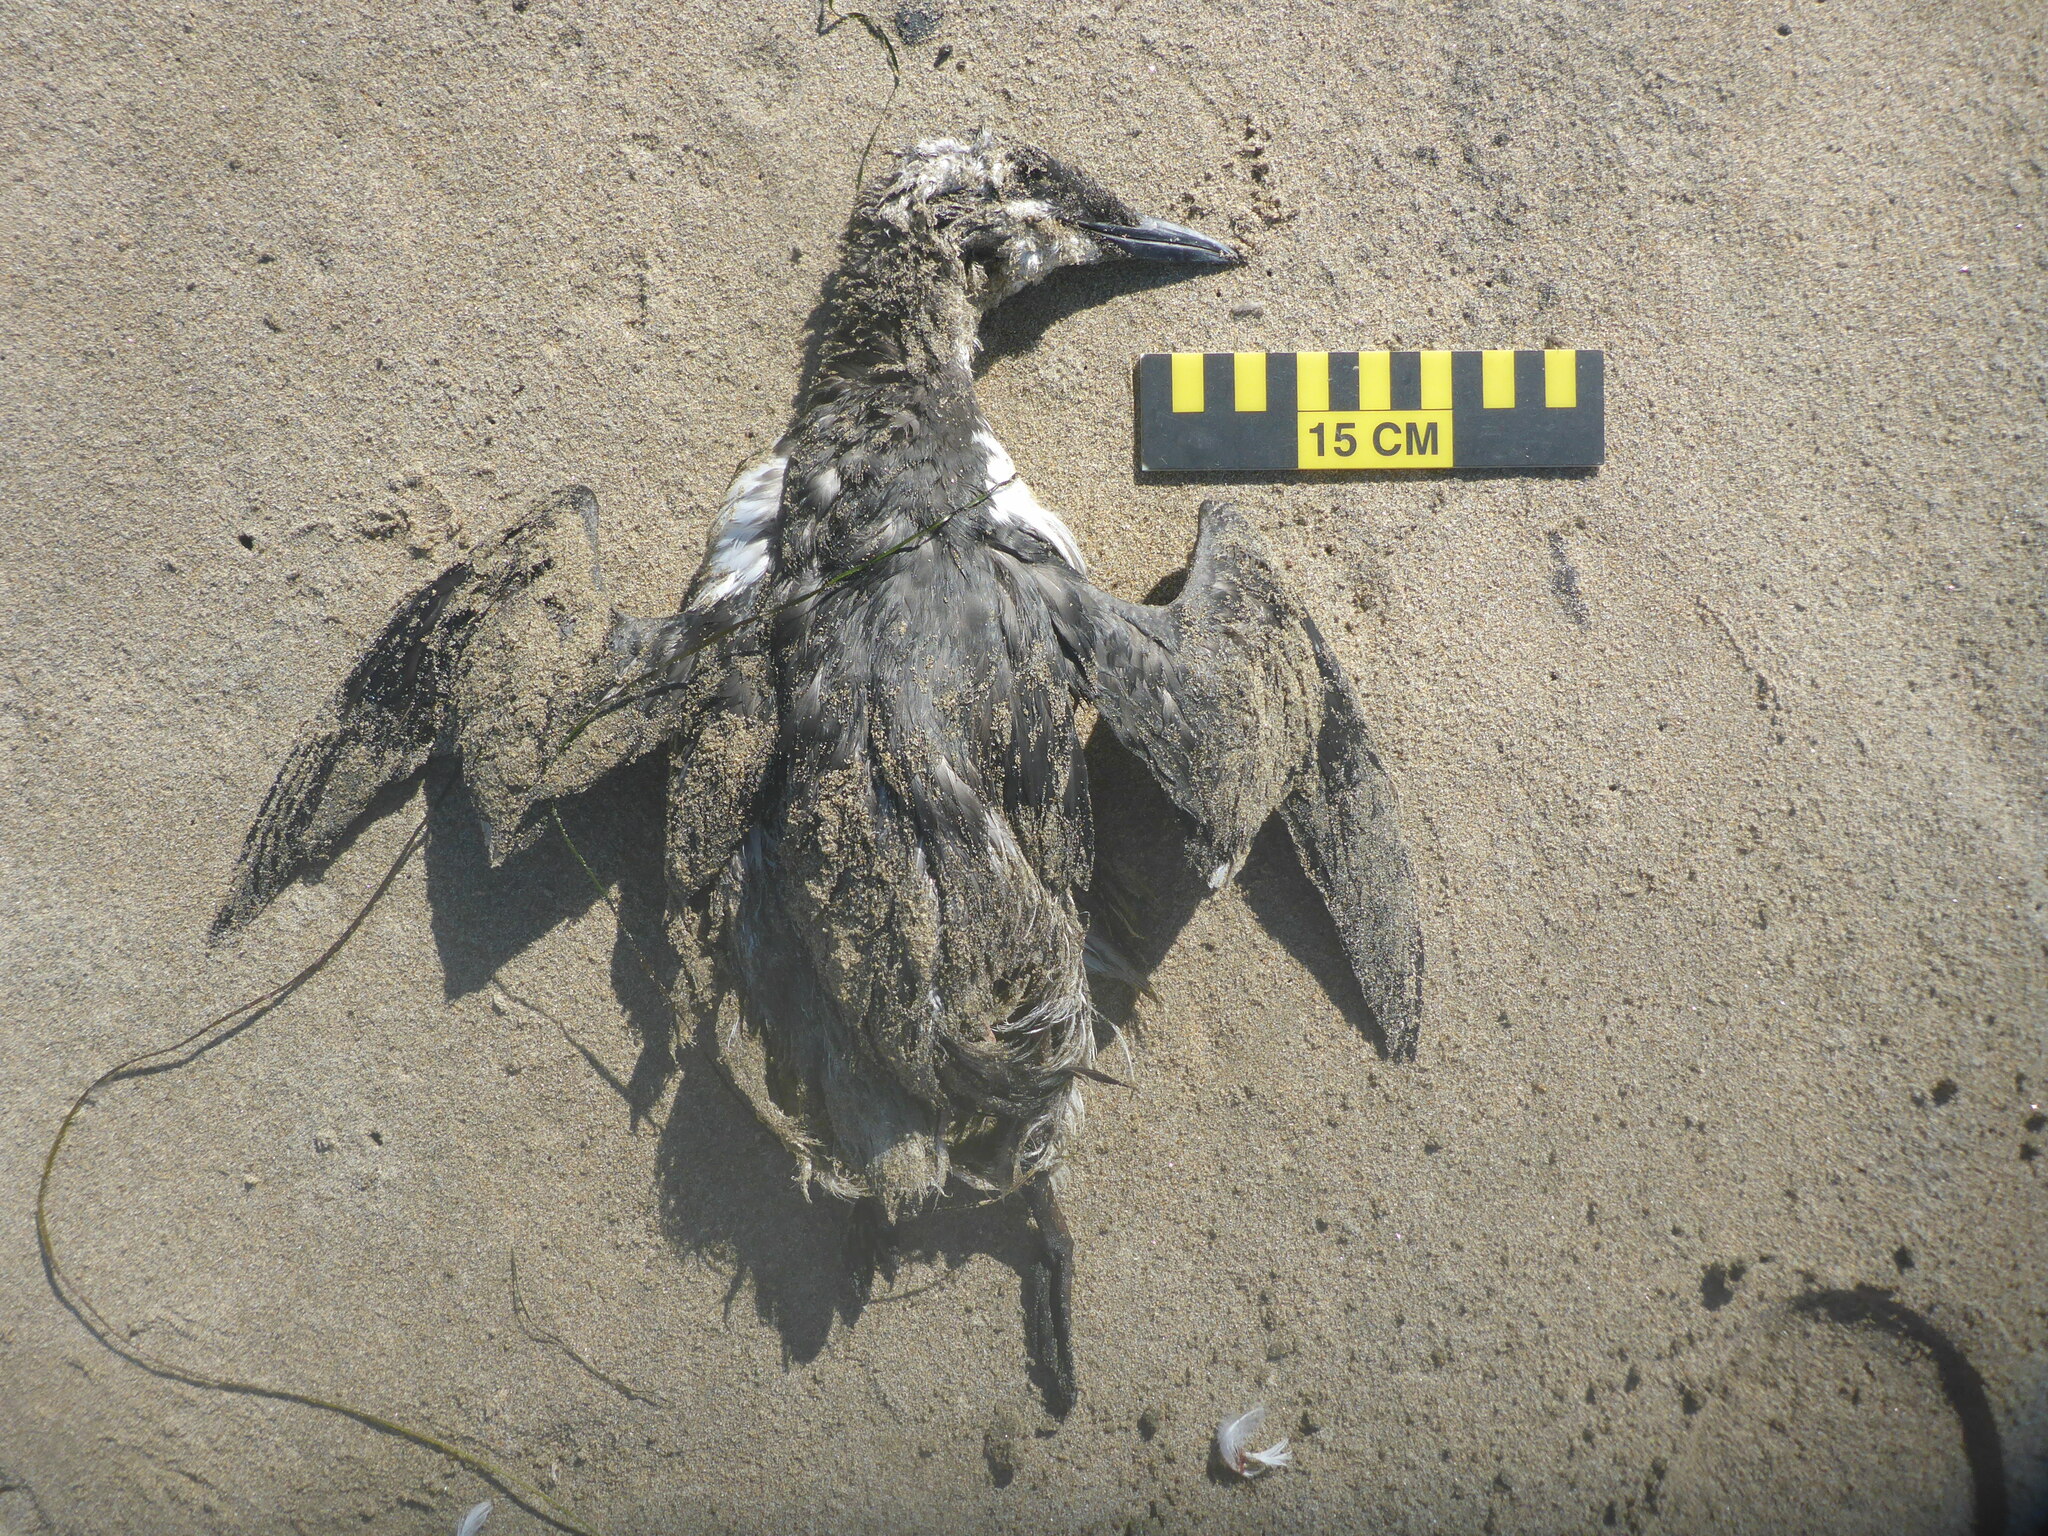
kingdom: Animalia
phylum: Chordata
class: Aves
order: Charadriiformes
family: Alcidae
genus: Uria
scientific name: Uria aalge
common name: Common murre
